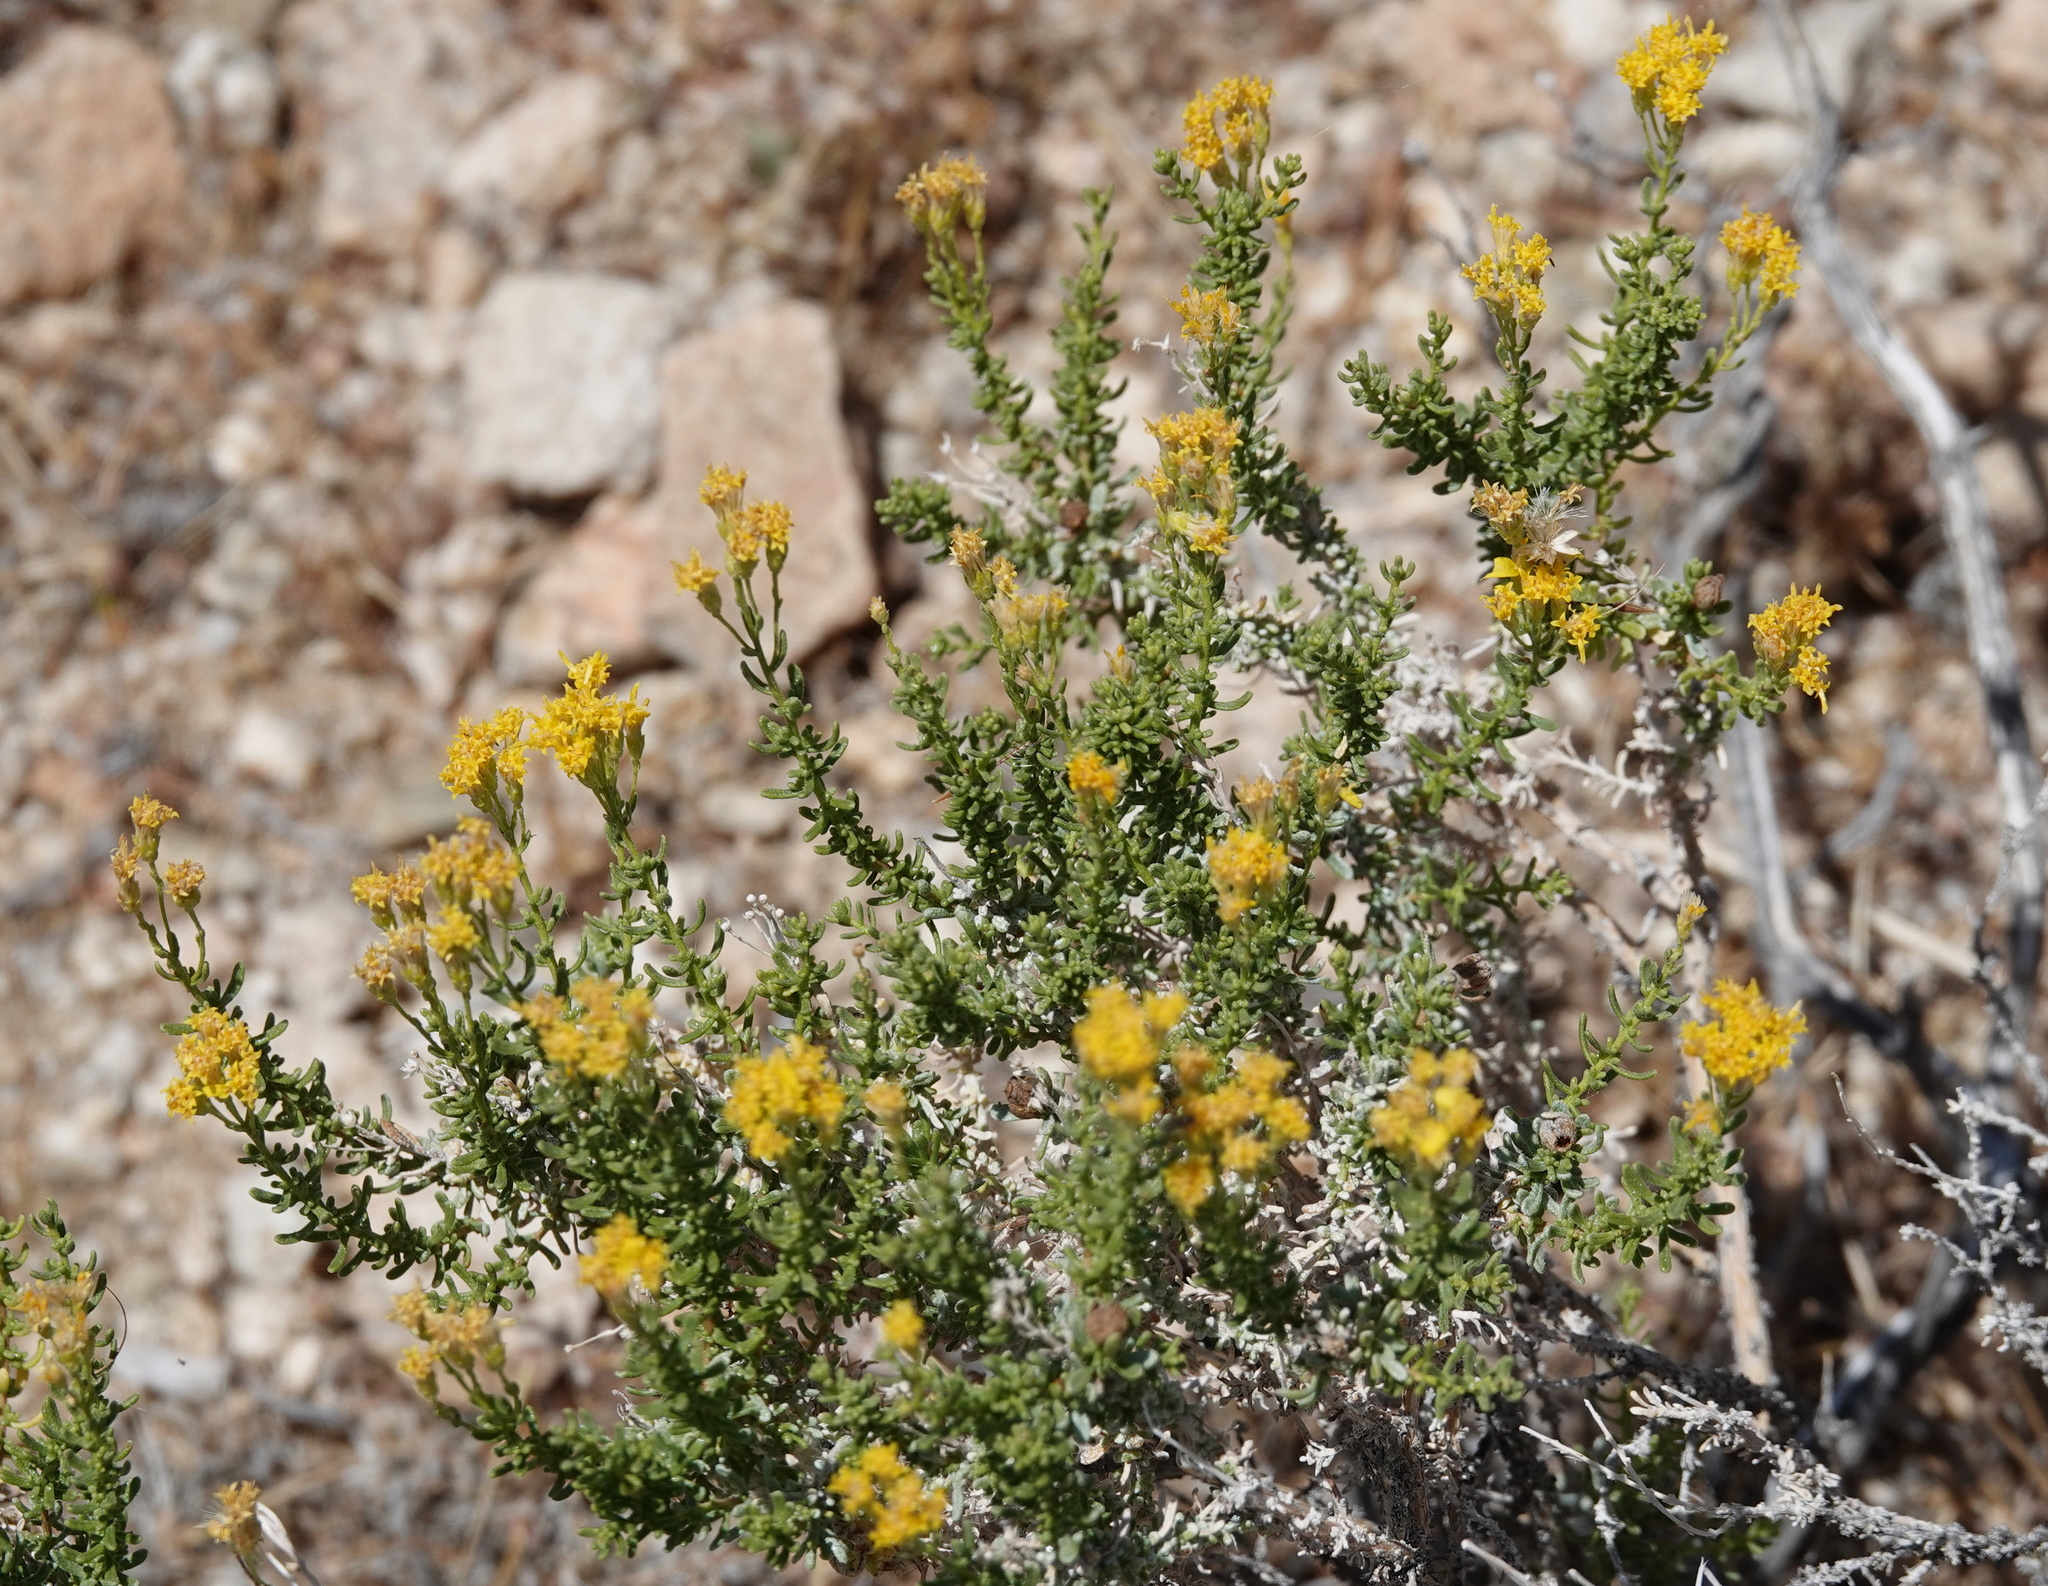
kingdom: Plantae
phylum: Tracheophyta
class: Magnoliopsida
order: Asterales
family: Asteraceae
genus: Ericameria
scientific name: Ericameria laricifolia
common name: Turpentine-bush
